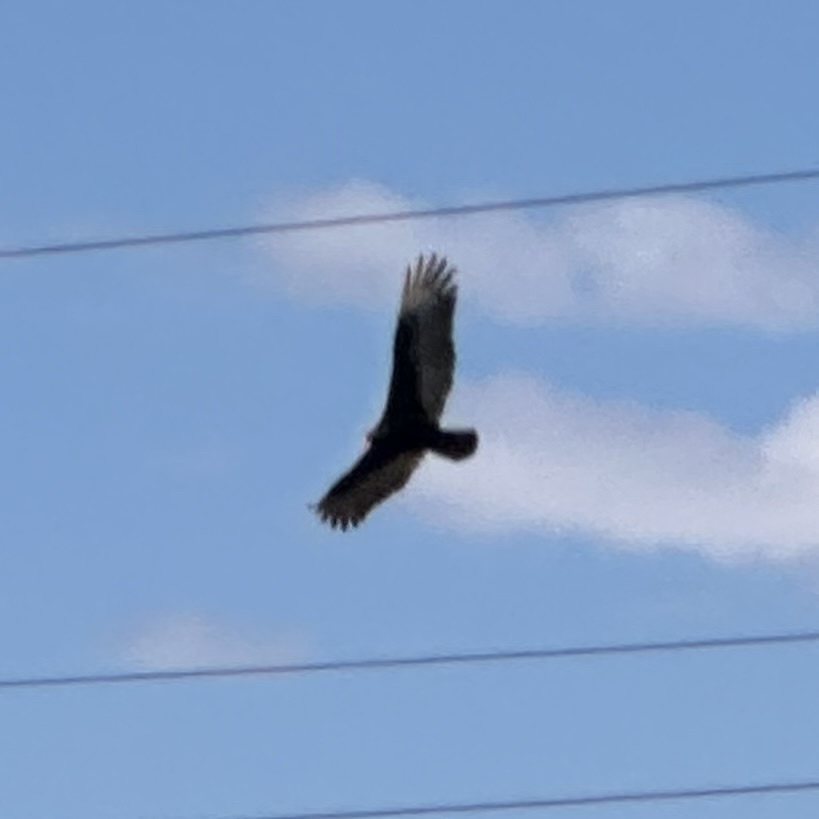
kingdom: Animalia
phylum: Chordata
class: Aves
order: Accipitriformes
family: Cathartidae
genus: Cathartes
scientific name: Cathartes aura
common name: Turkey vulture
